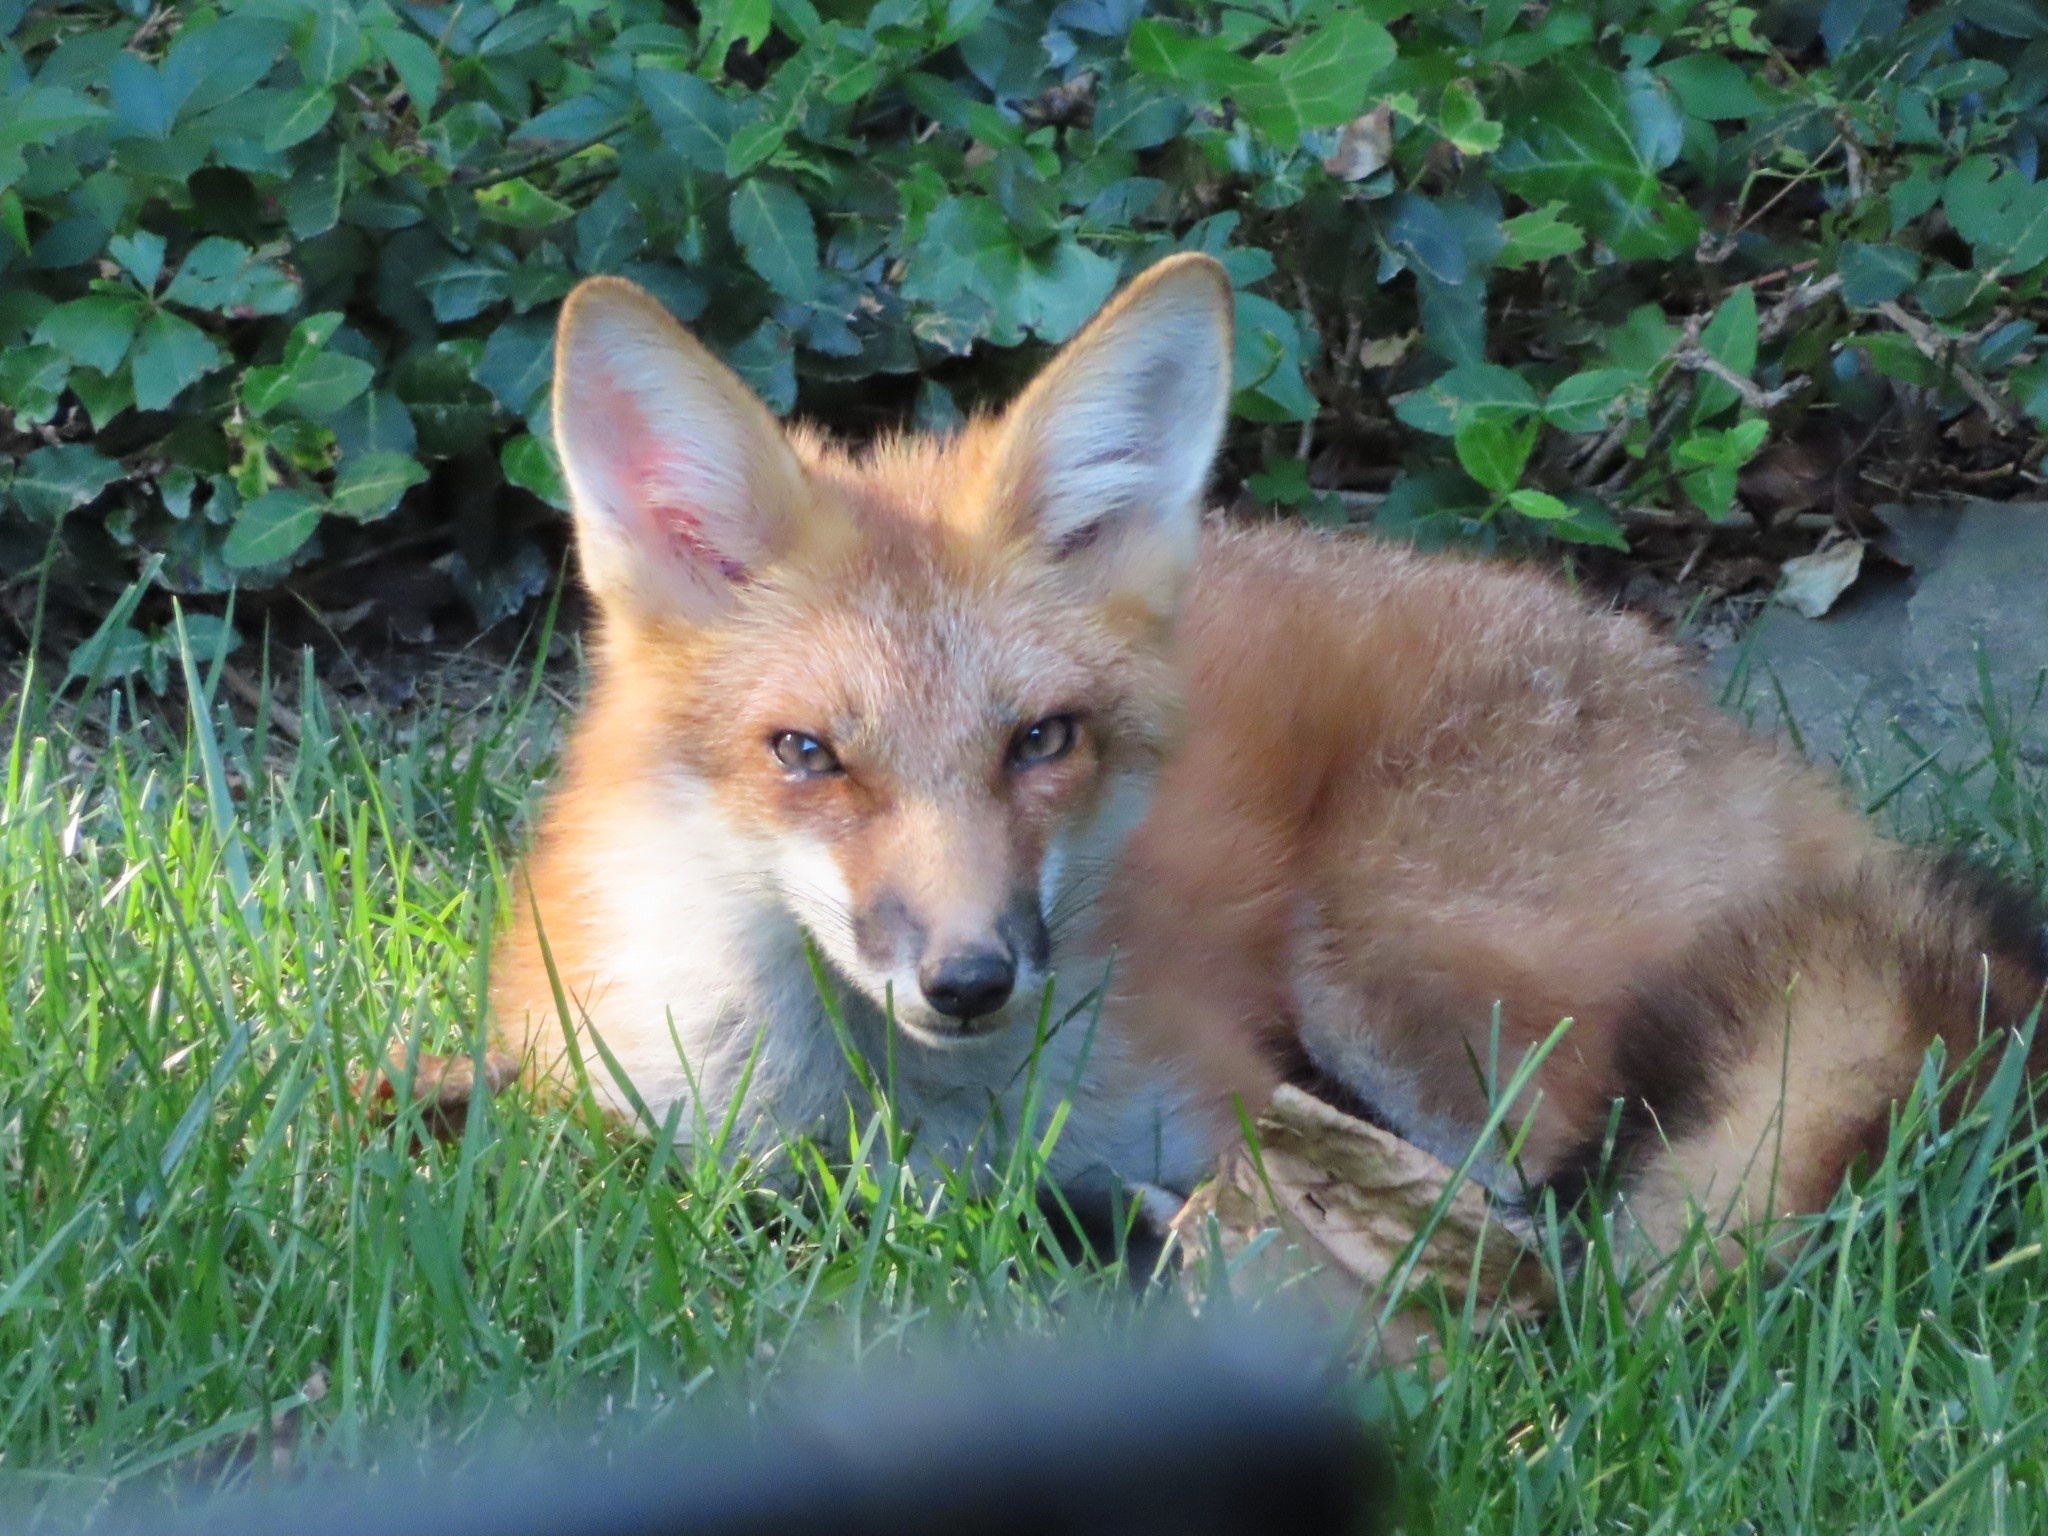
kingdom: Animalia
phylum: Chordata
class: Mammalia
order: Carnivora
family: Canidae
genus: Vulpes
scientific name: Vulpes vulpes
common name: Red fox
